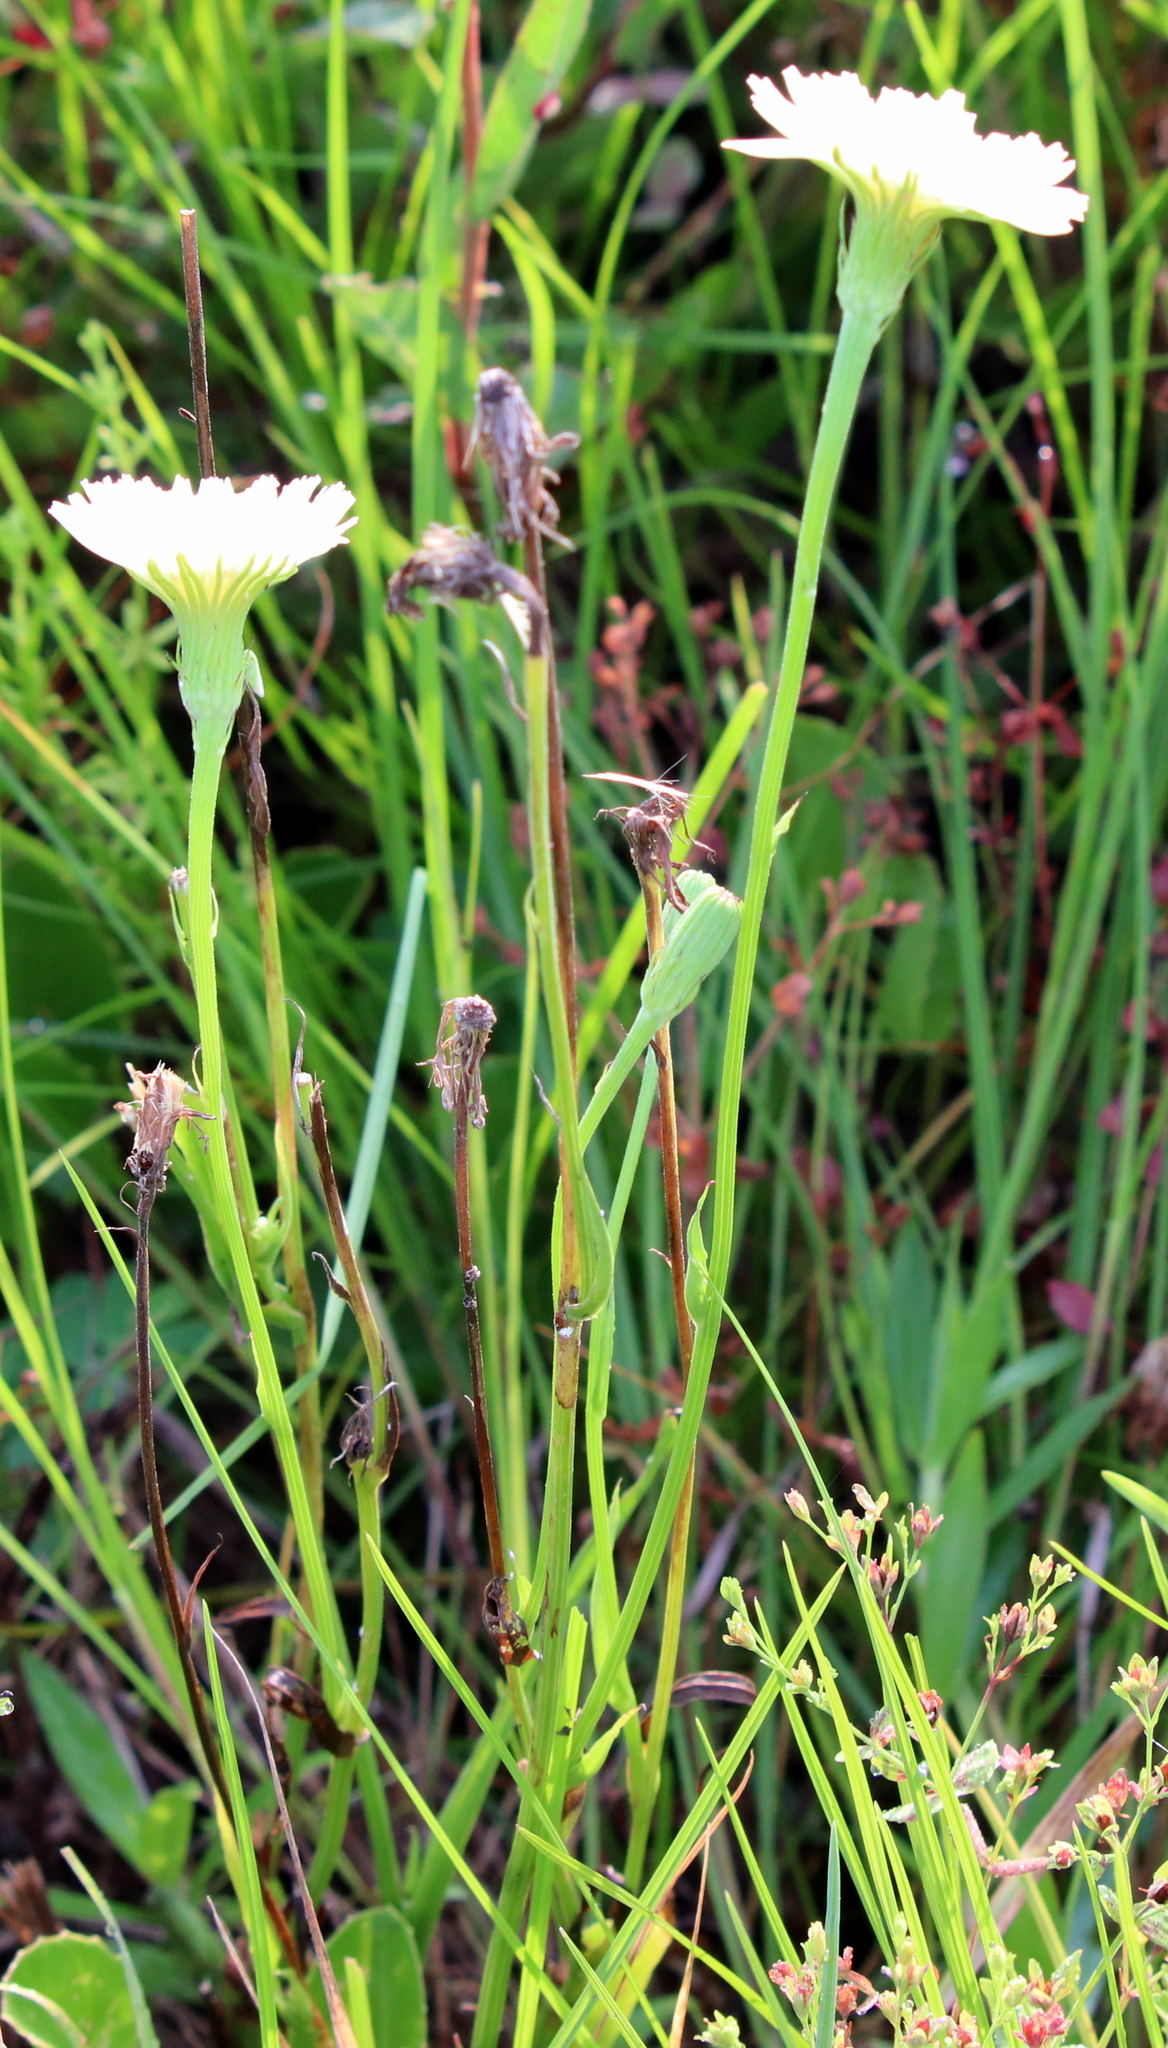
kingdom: Plantae
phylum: Tracheophyta
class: Magnoliopsida
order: Asterales
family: Asteraceae
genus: Pyrrhopappus
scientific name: Pyrrhopappus carolinianus
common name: Carolina desert-chicory
